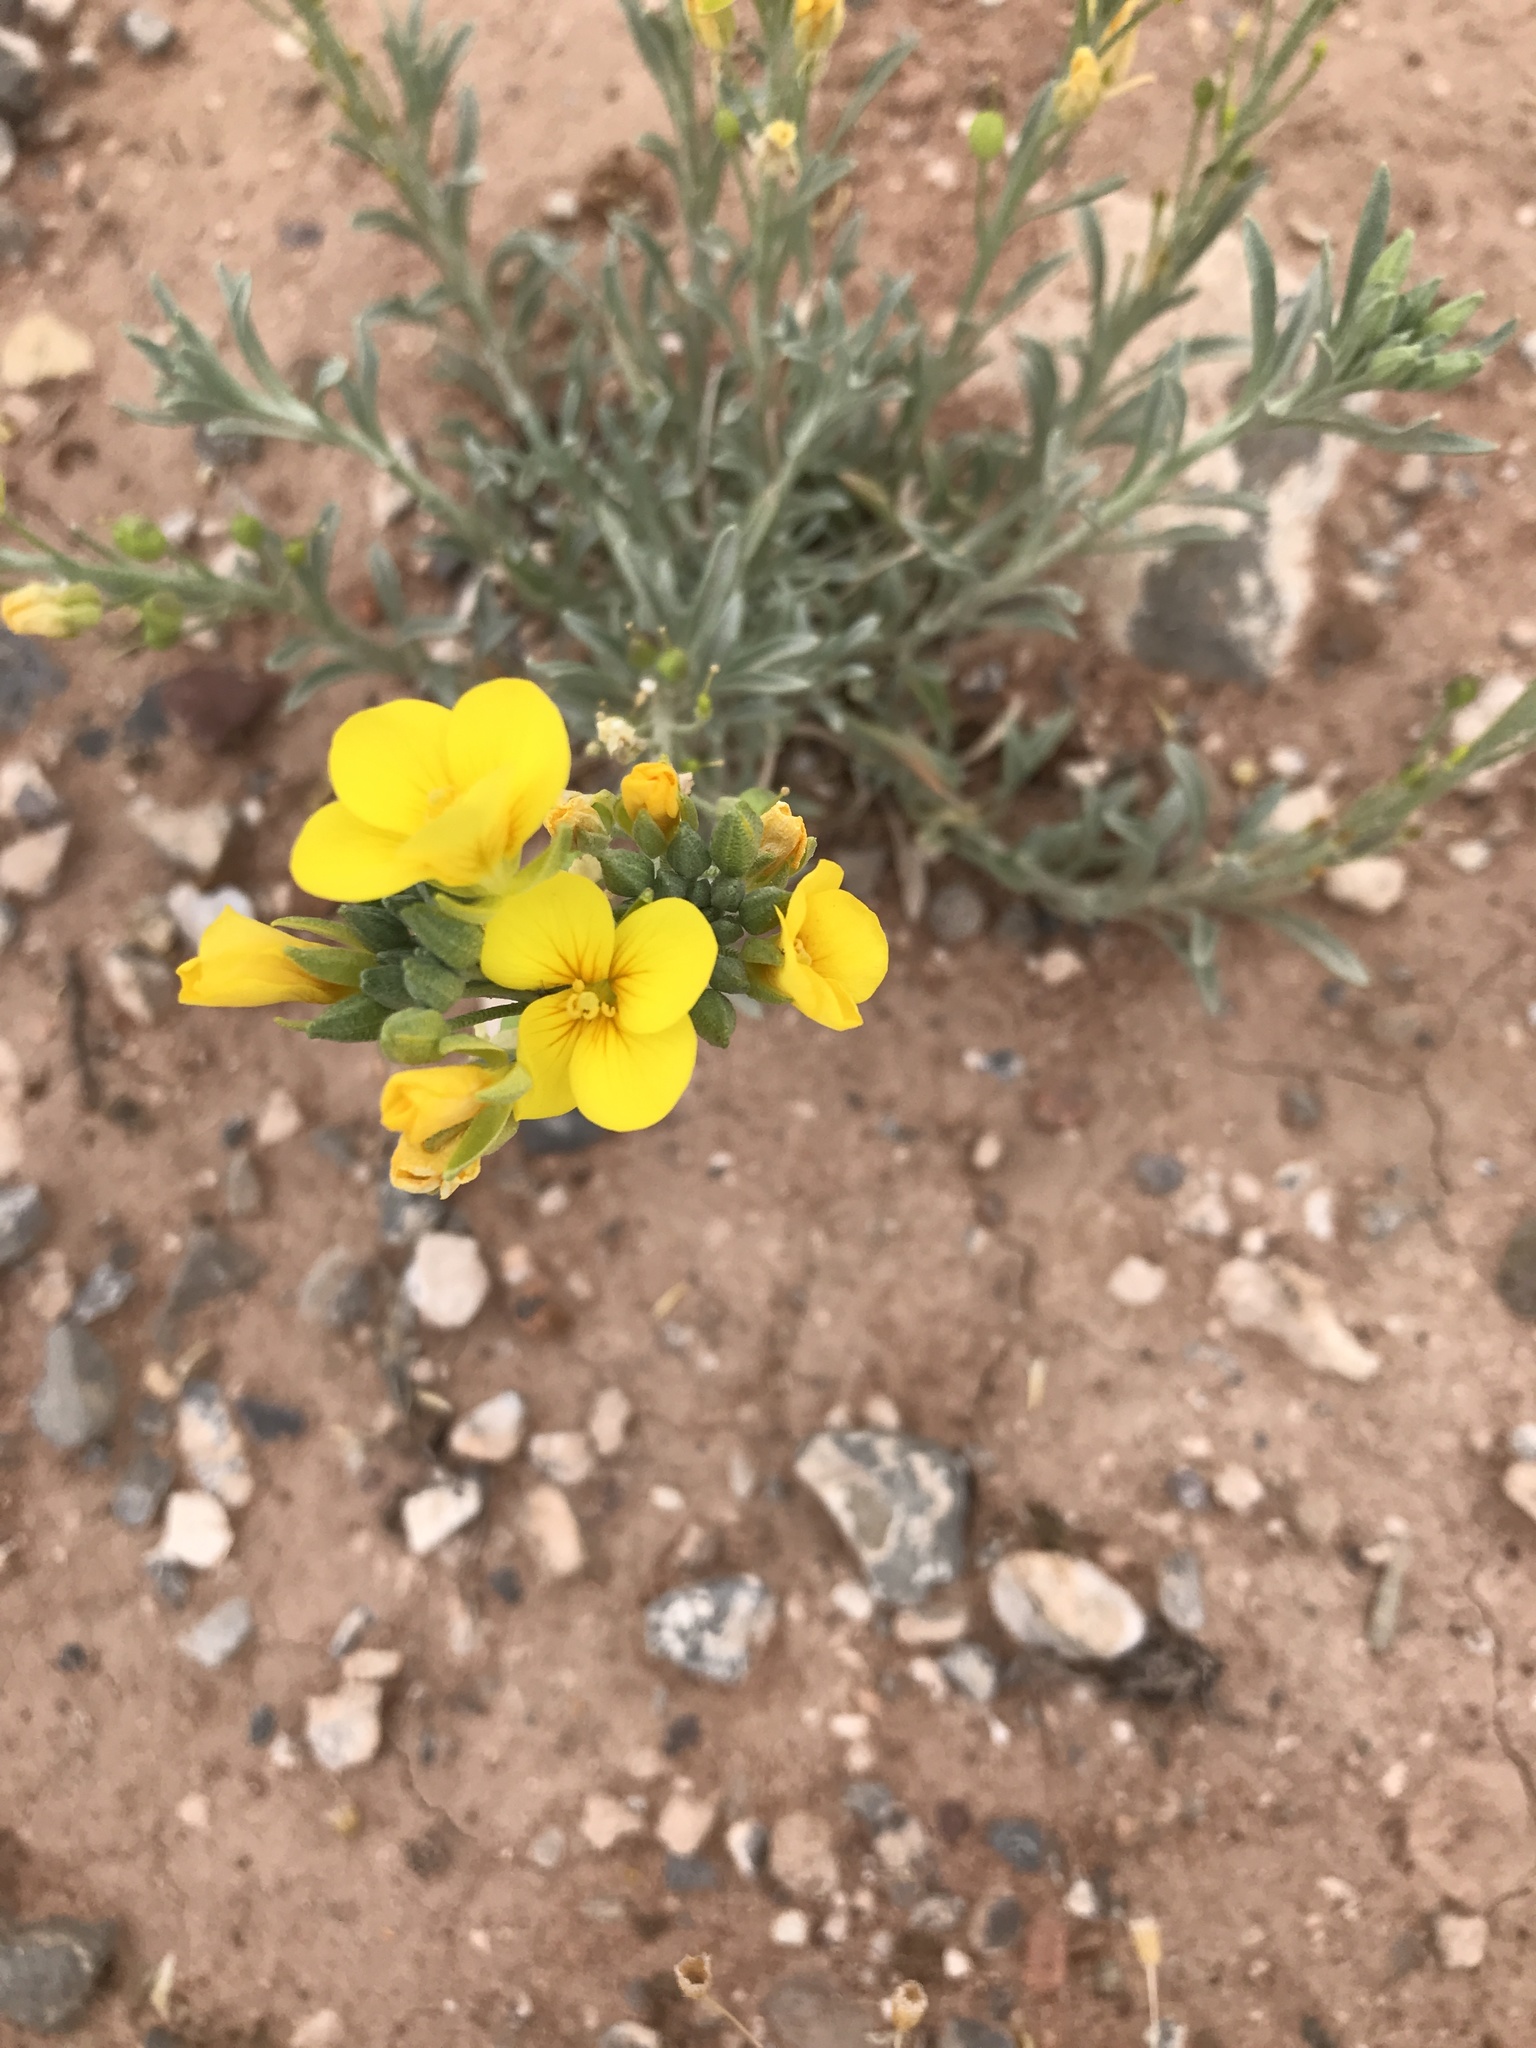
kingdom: Plantae
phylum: Tracheophyta
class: Magnoliopsida
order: Brassicales
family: Brassicaceae
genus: Physaria
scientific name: Physaria fendleri
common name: Fendler's bladderpod
